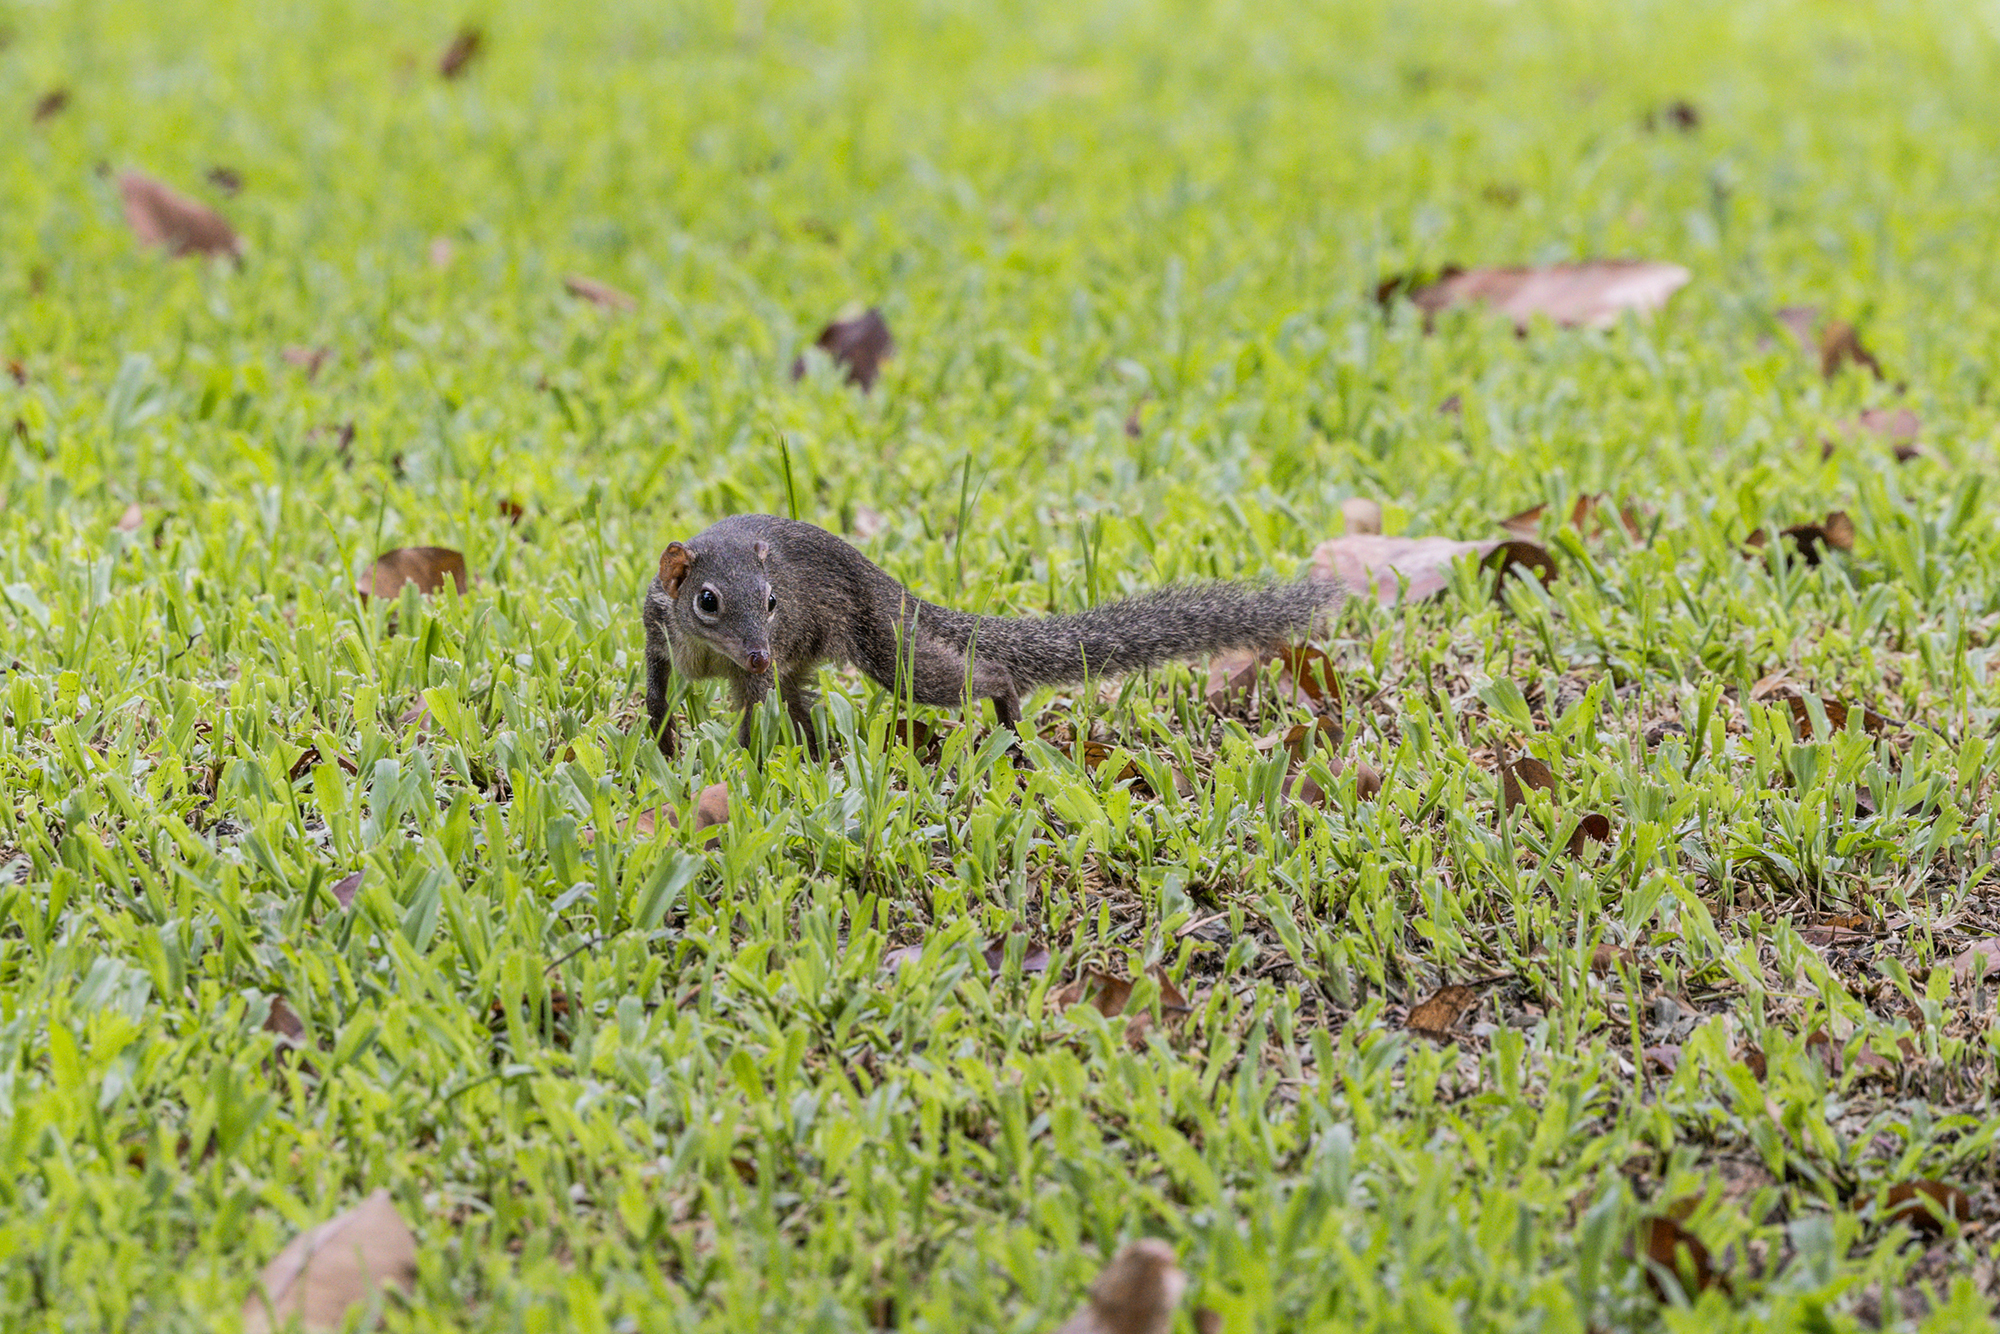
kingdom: Animalia
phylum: Chordata
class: Mammalia
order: Scandentia
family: Tupaiidae
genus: Tupaia
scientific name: Tupaia belangeri
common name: Northern treeshrew
